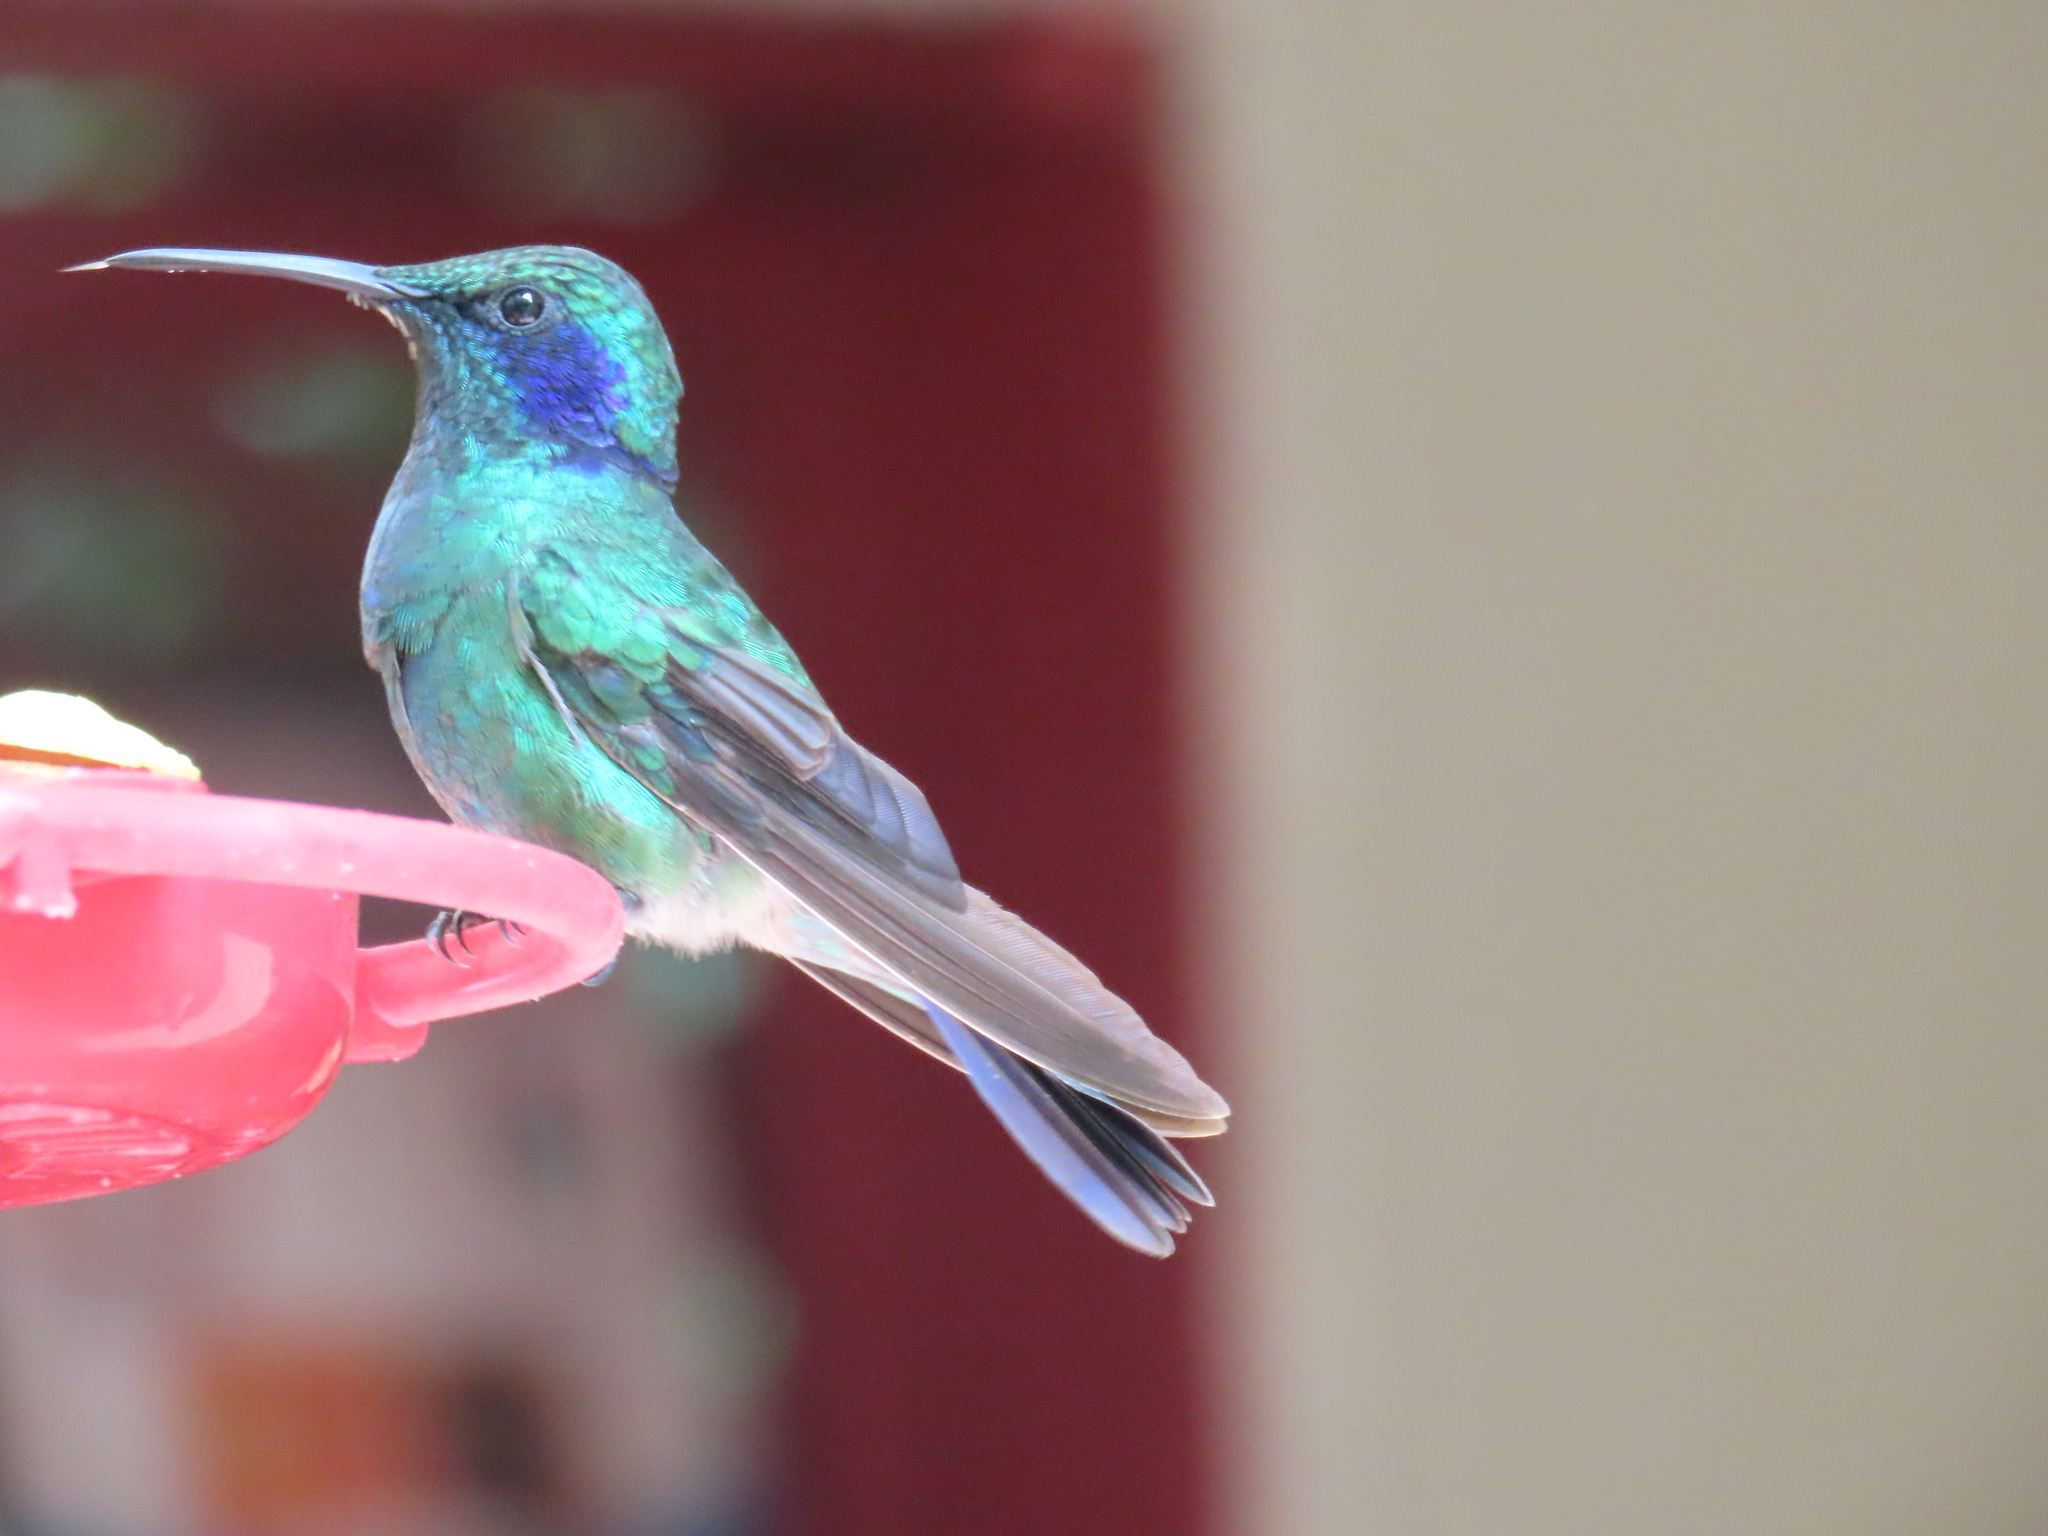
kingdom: Animalia
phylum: Chordata
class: Aves
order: Apodiformes
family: Trochilidae
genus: Colibri
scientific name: Colibri cyanotus
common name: Lesser violetear
